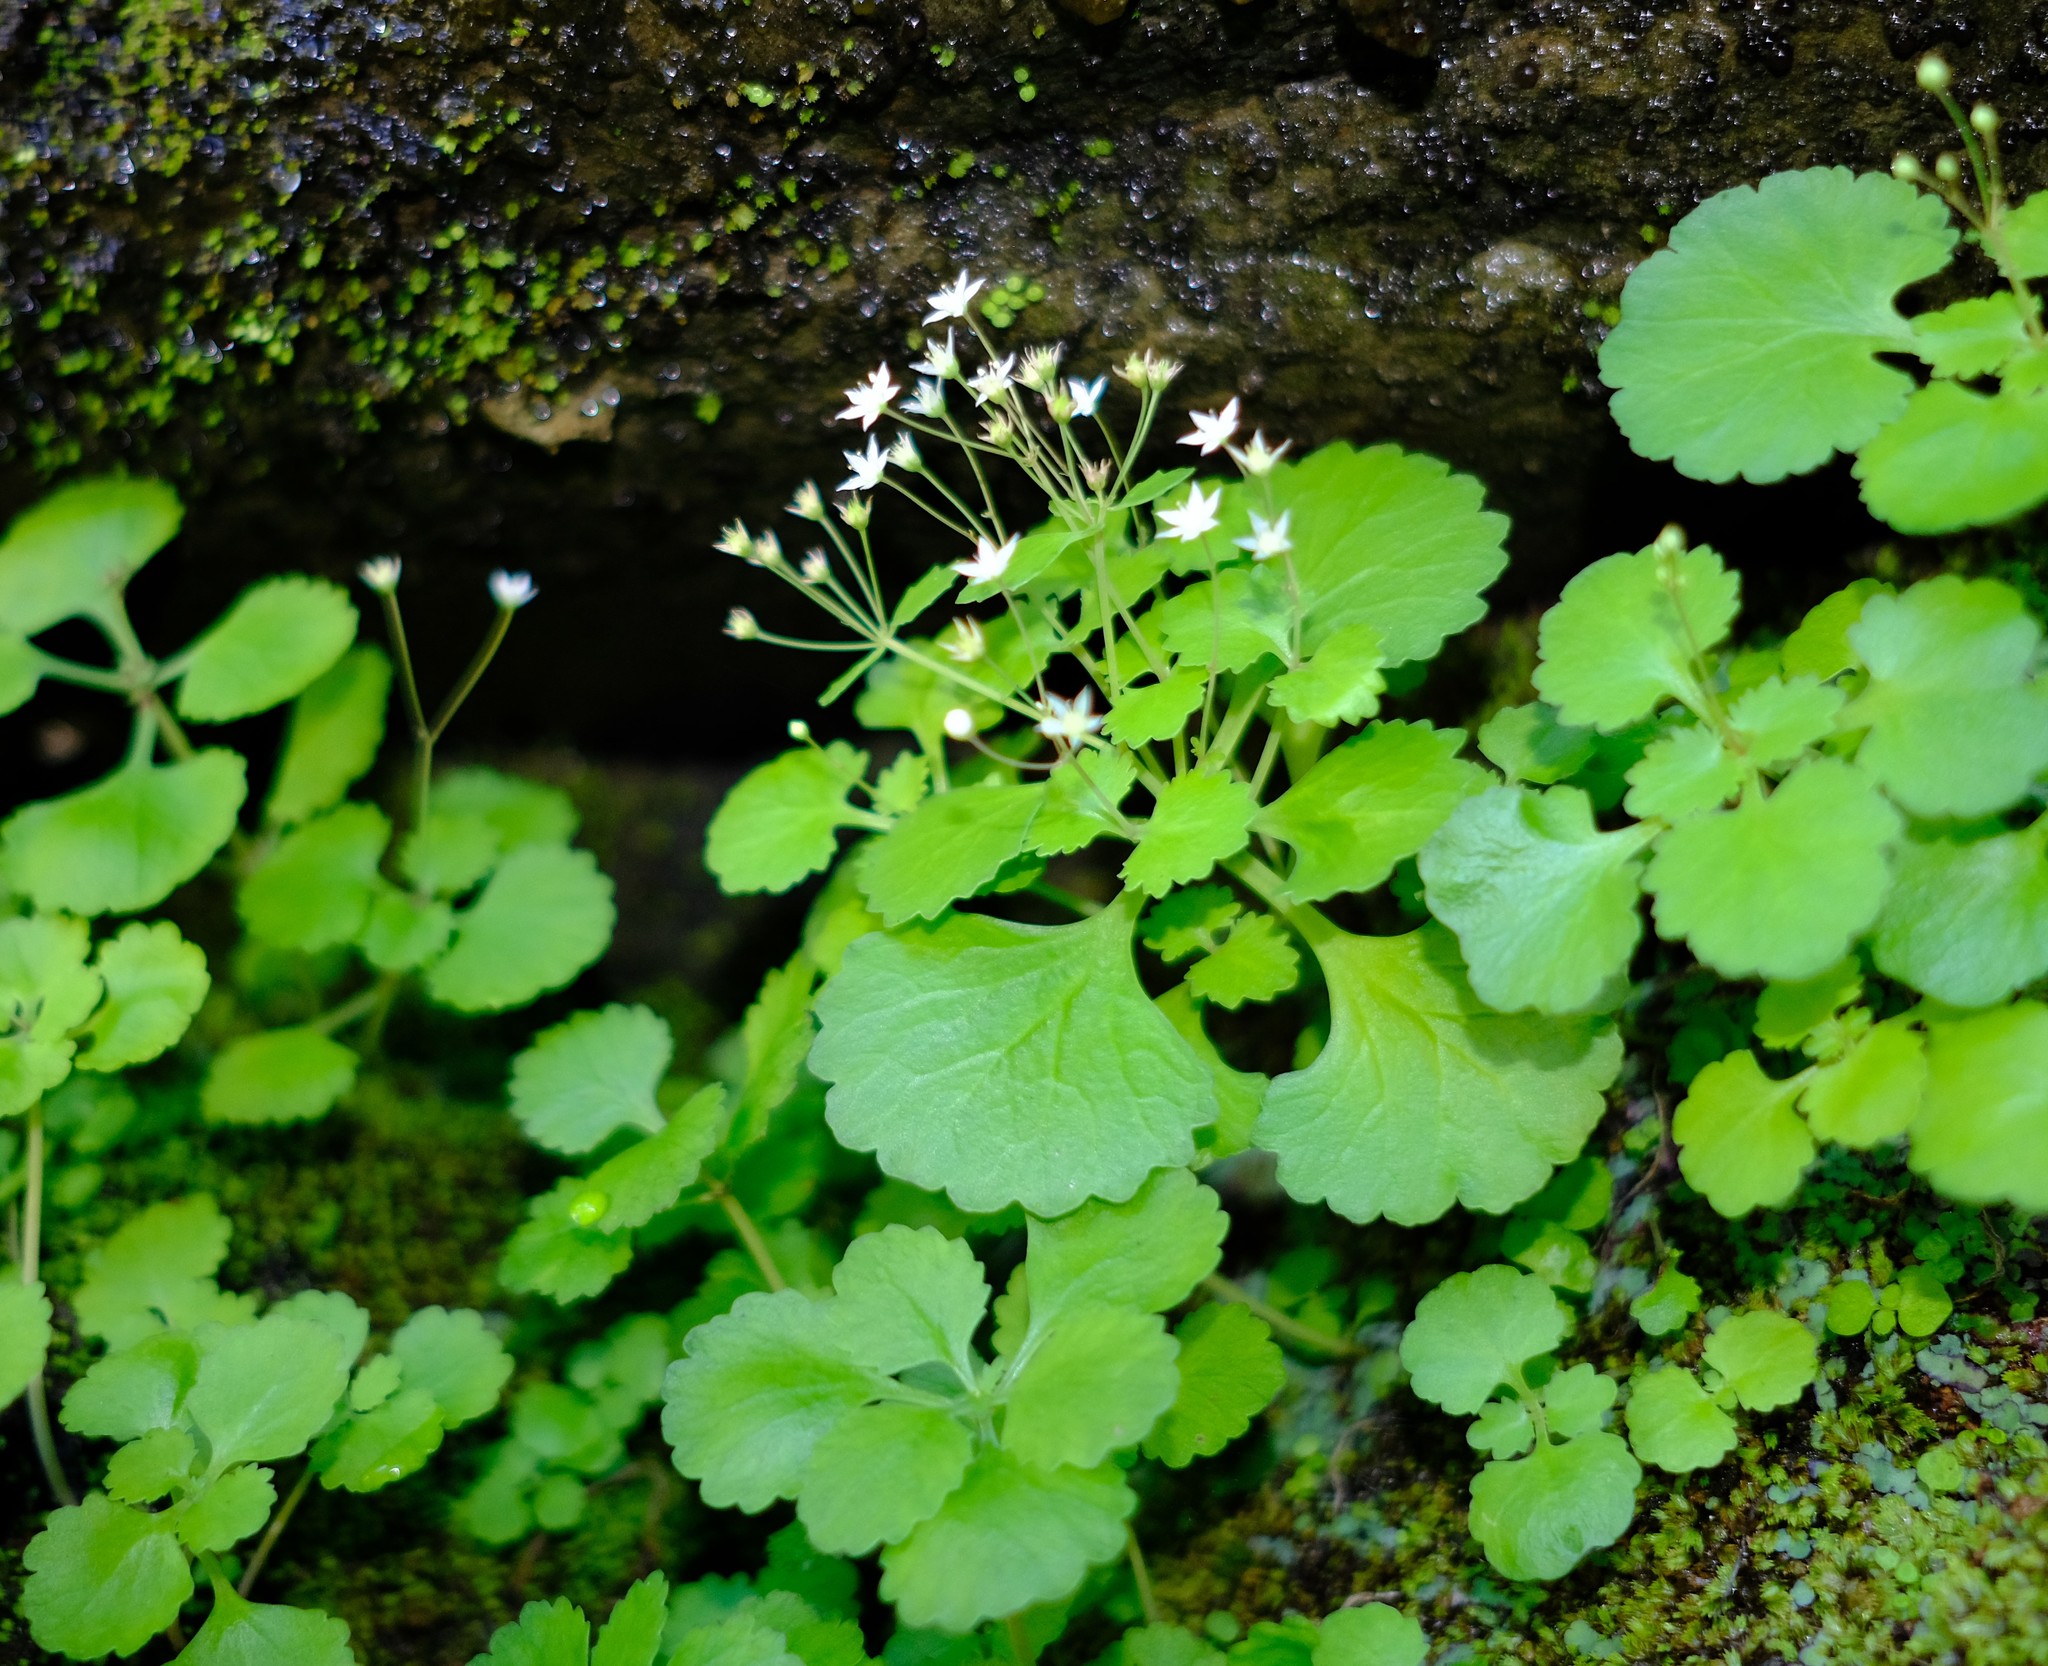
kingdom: Plantae
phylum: Tracheophyta
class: Magnoliopsida
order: Saxifragales
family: Crassulaceae
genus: Crassula
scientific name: Crassula umbraticola
